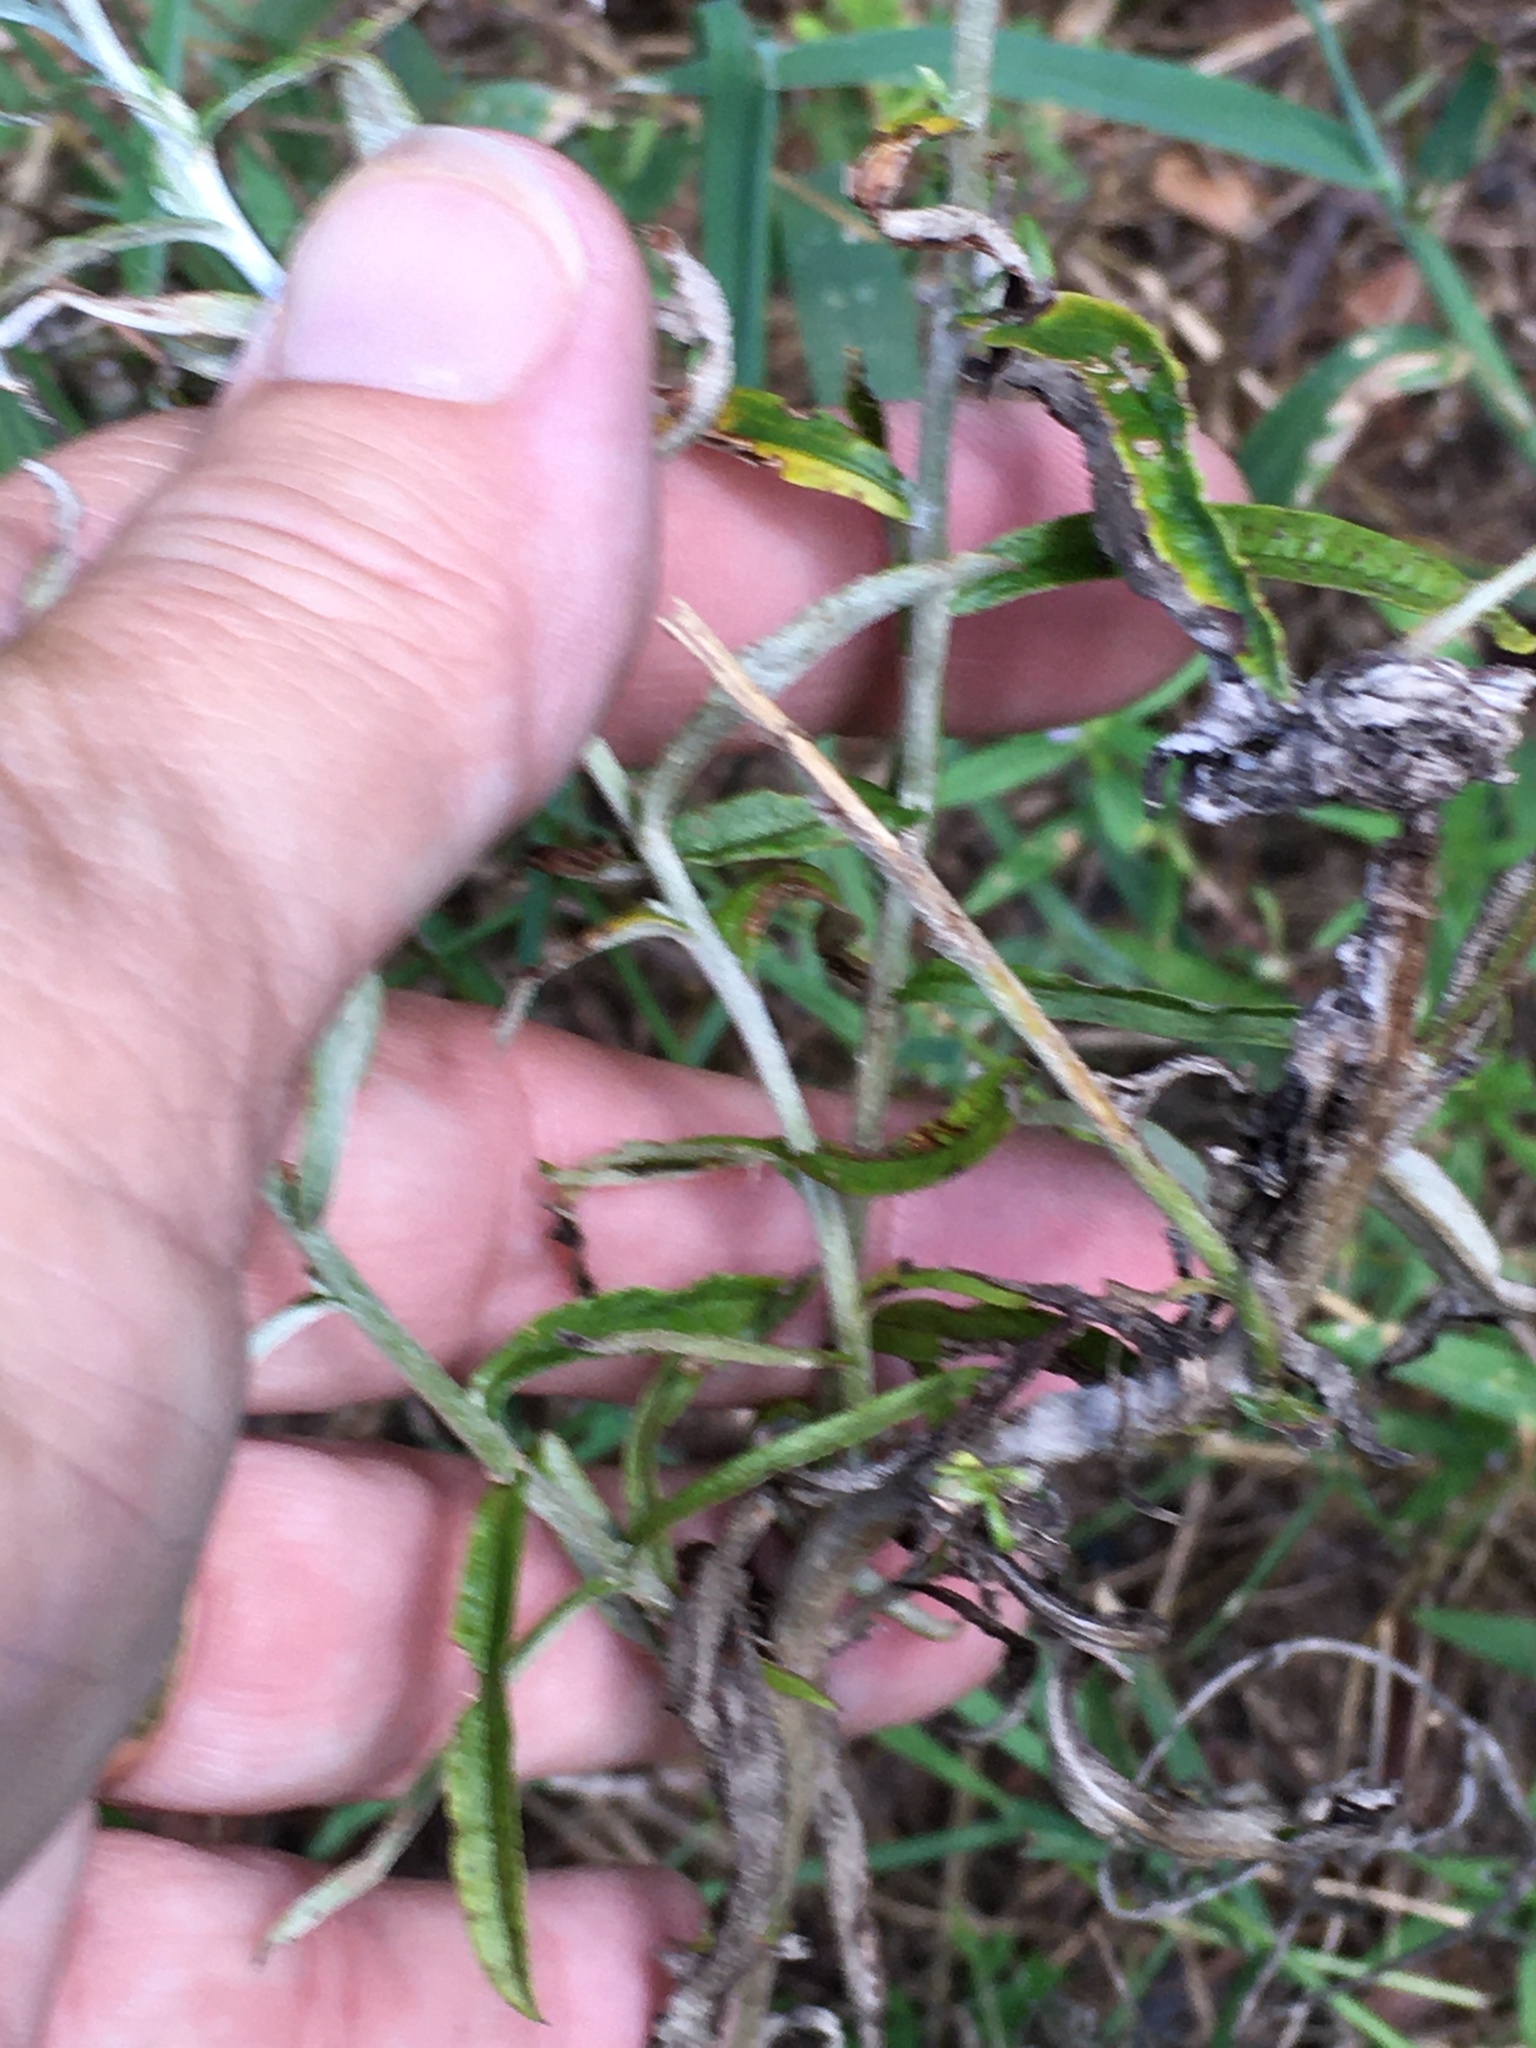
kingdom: Plantae
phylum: Tracheophyta
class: Magnoliopsida
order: Asterales
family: Asteraceae
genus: Pseudognaphalium
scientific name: Pseudognaphalium obtusifolium
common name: Eastern rabbit-tobacco
